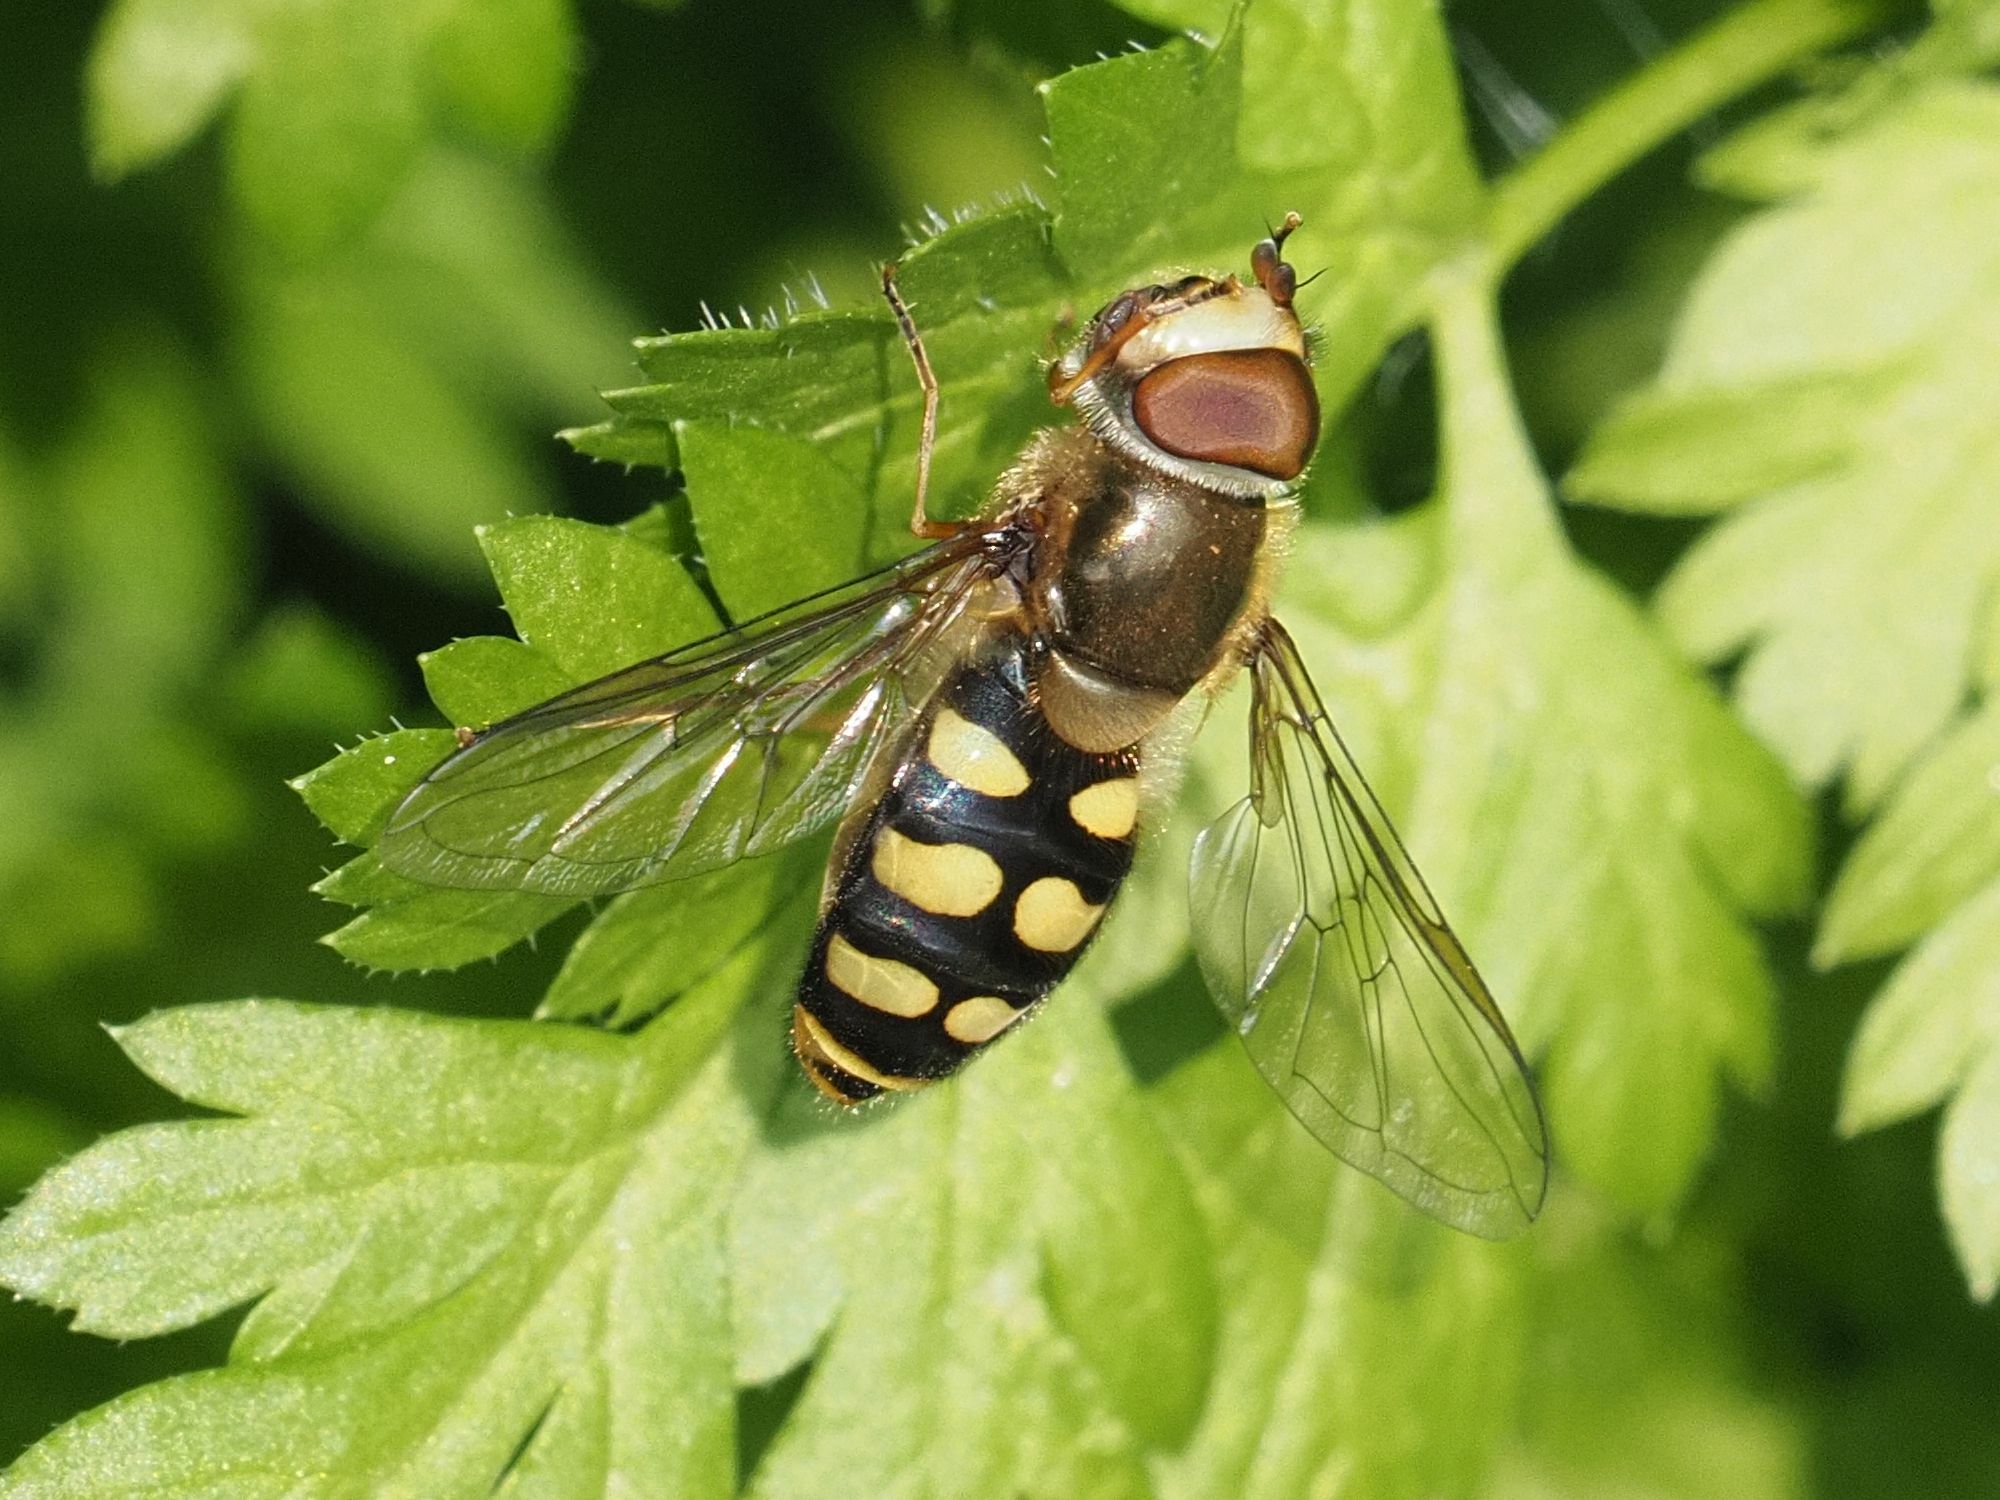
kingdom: Animalia
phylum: Arthropoda
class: Insecta
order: Diptera
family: Syrphidae
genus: Eupeodes
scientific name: Eupeodes luniger
